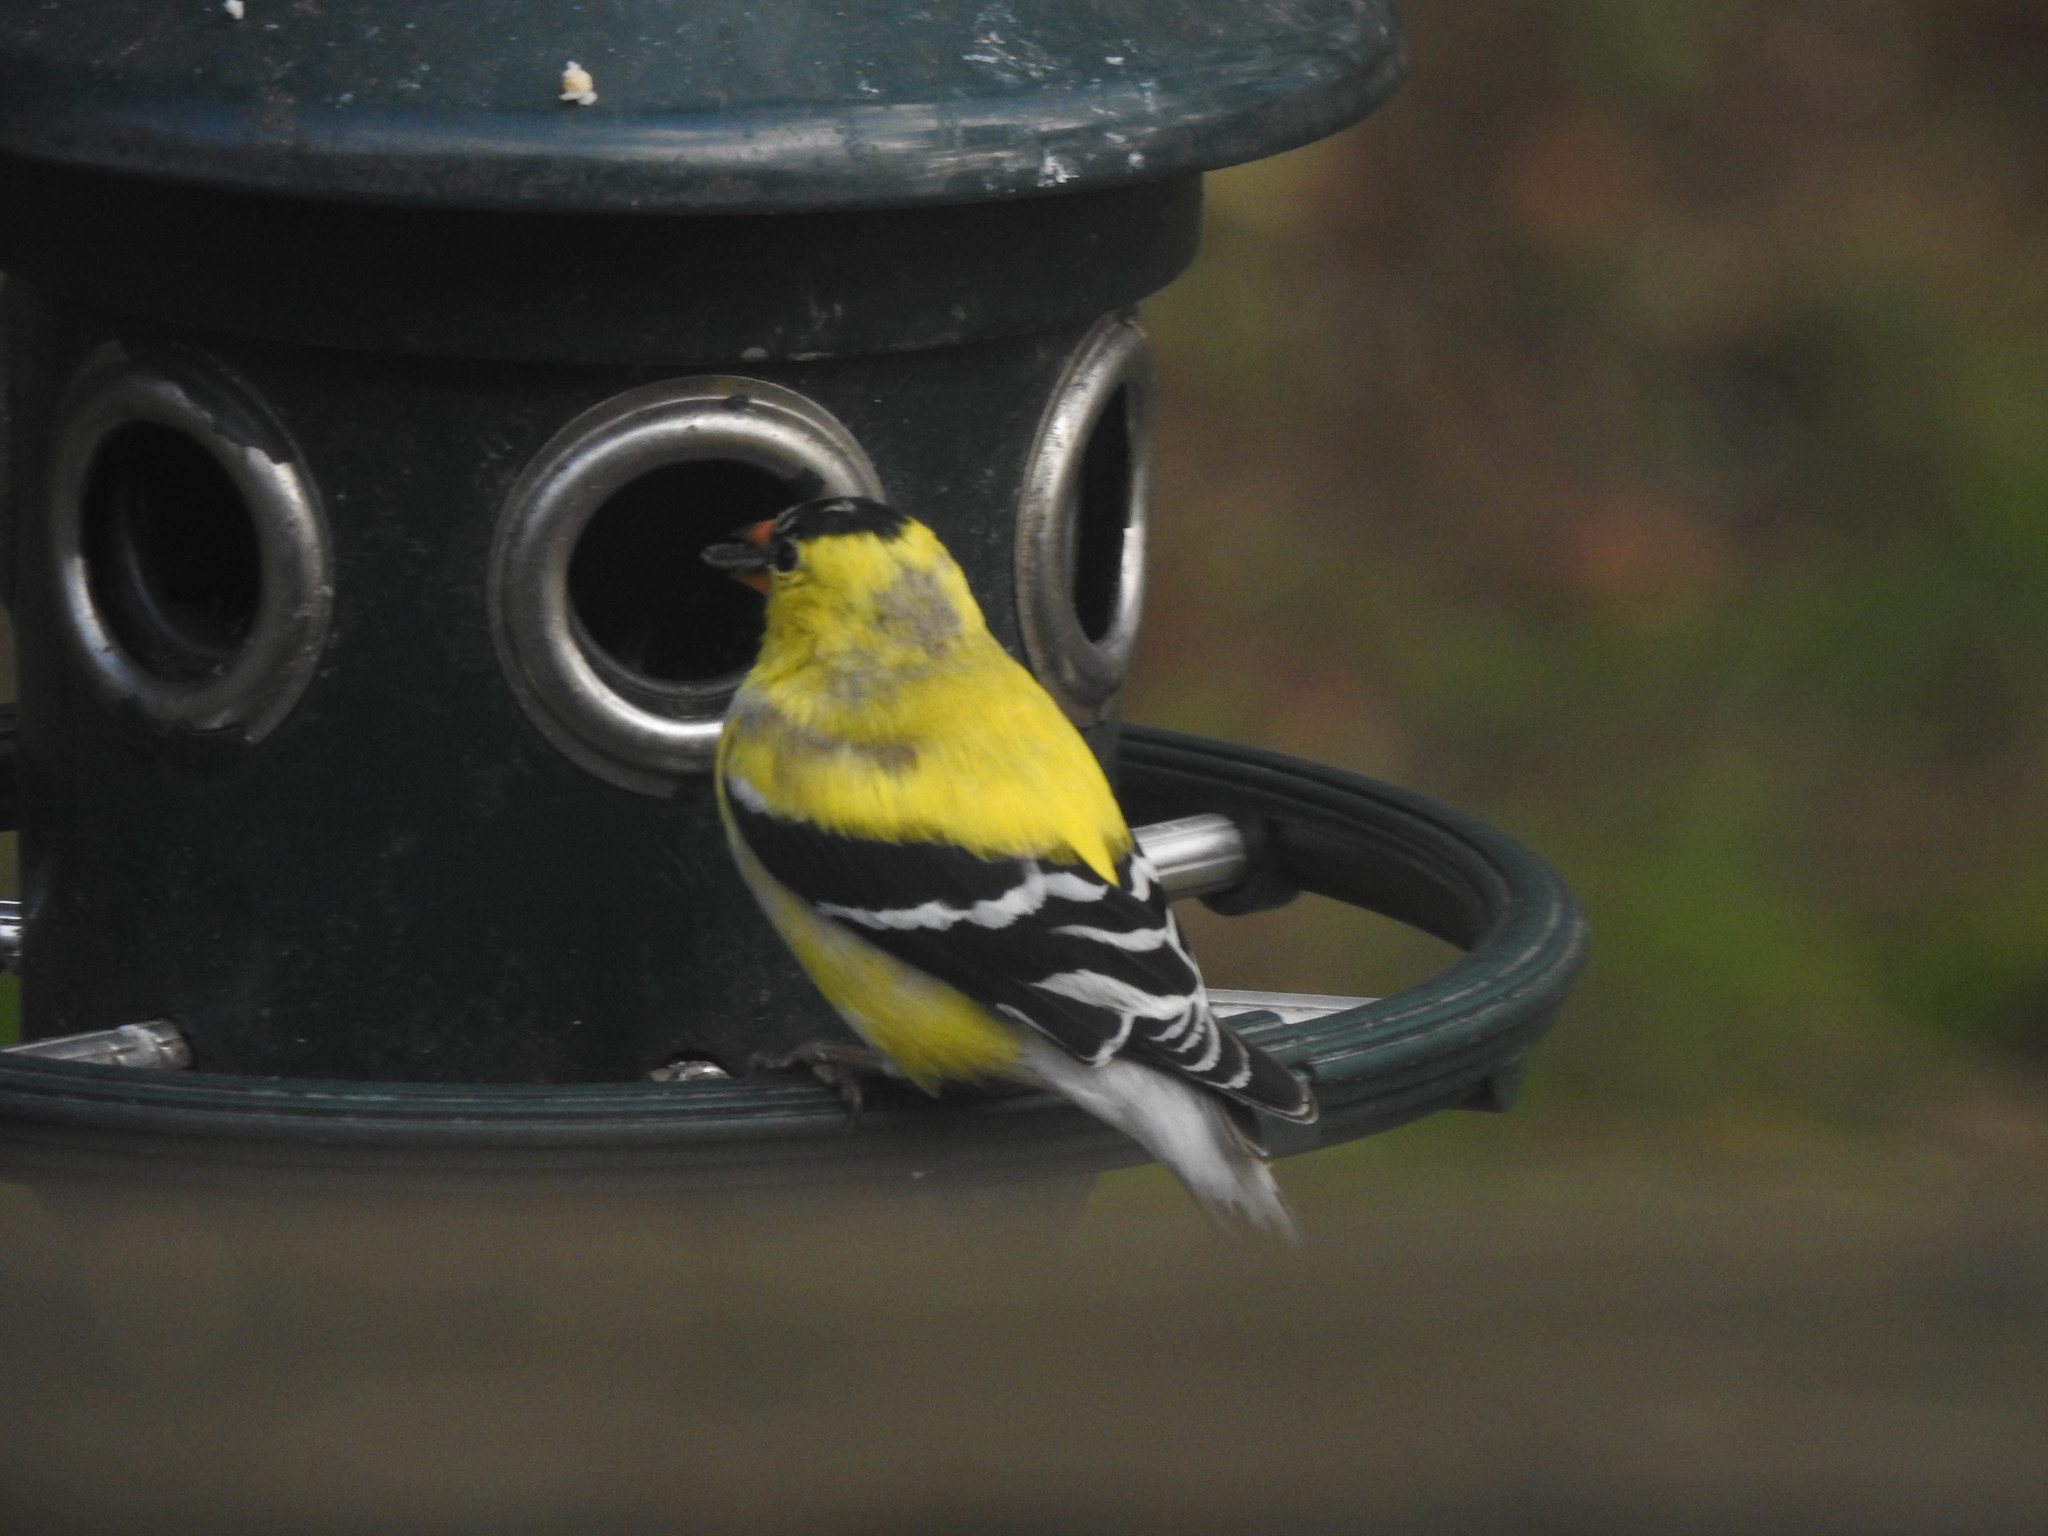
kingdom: Animalia
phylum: Chordata
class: Aves
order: Passeriformes
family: Fringillidae
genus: Spinus
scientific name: Spinus tristis
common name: American goldfinch
